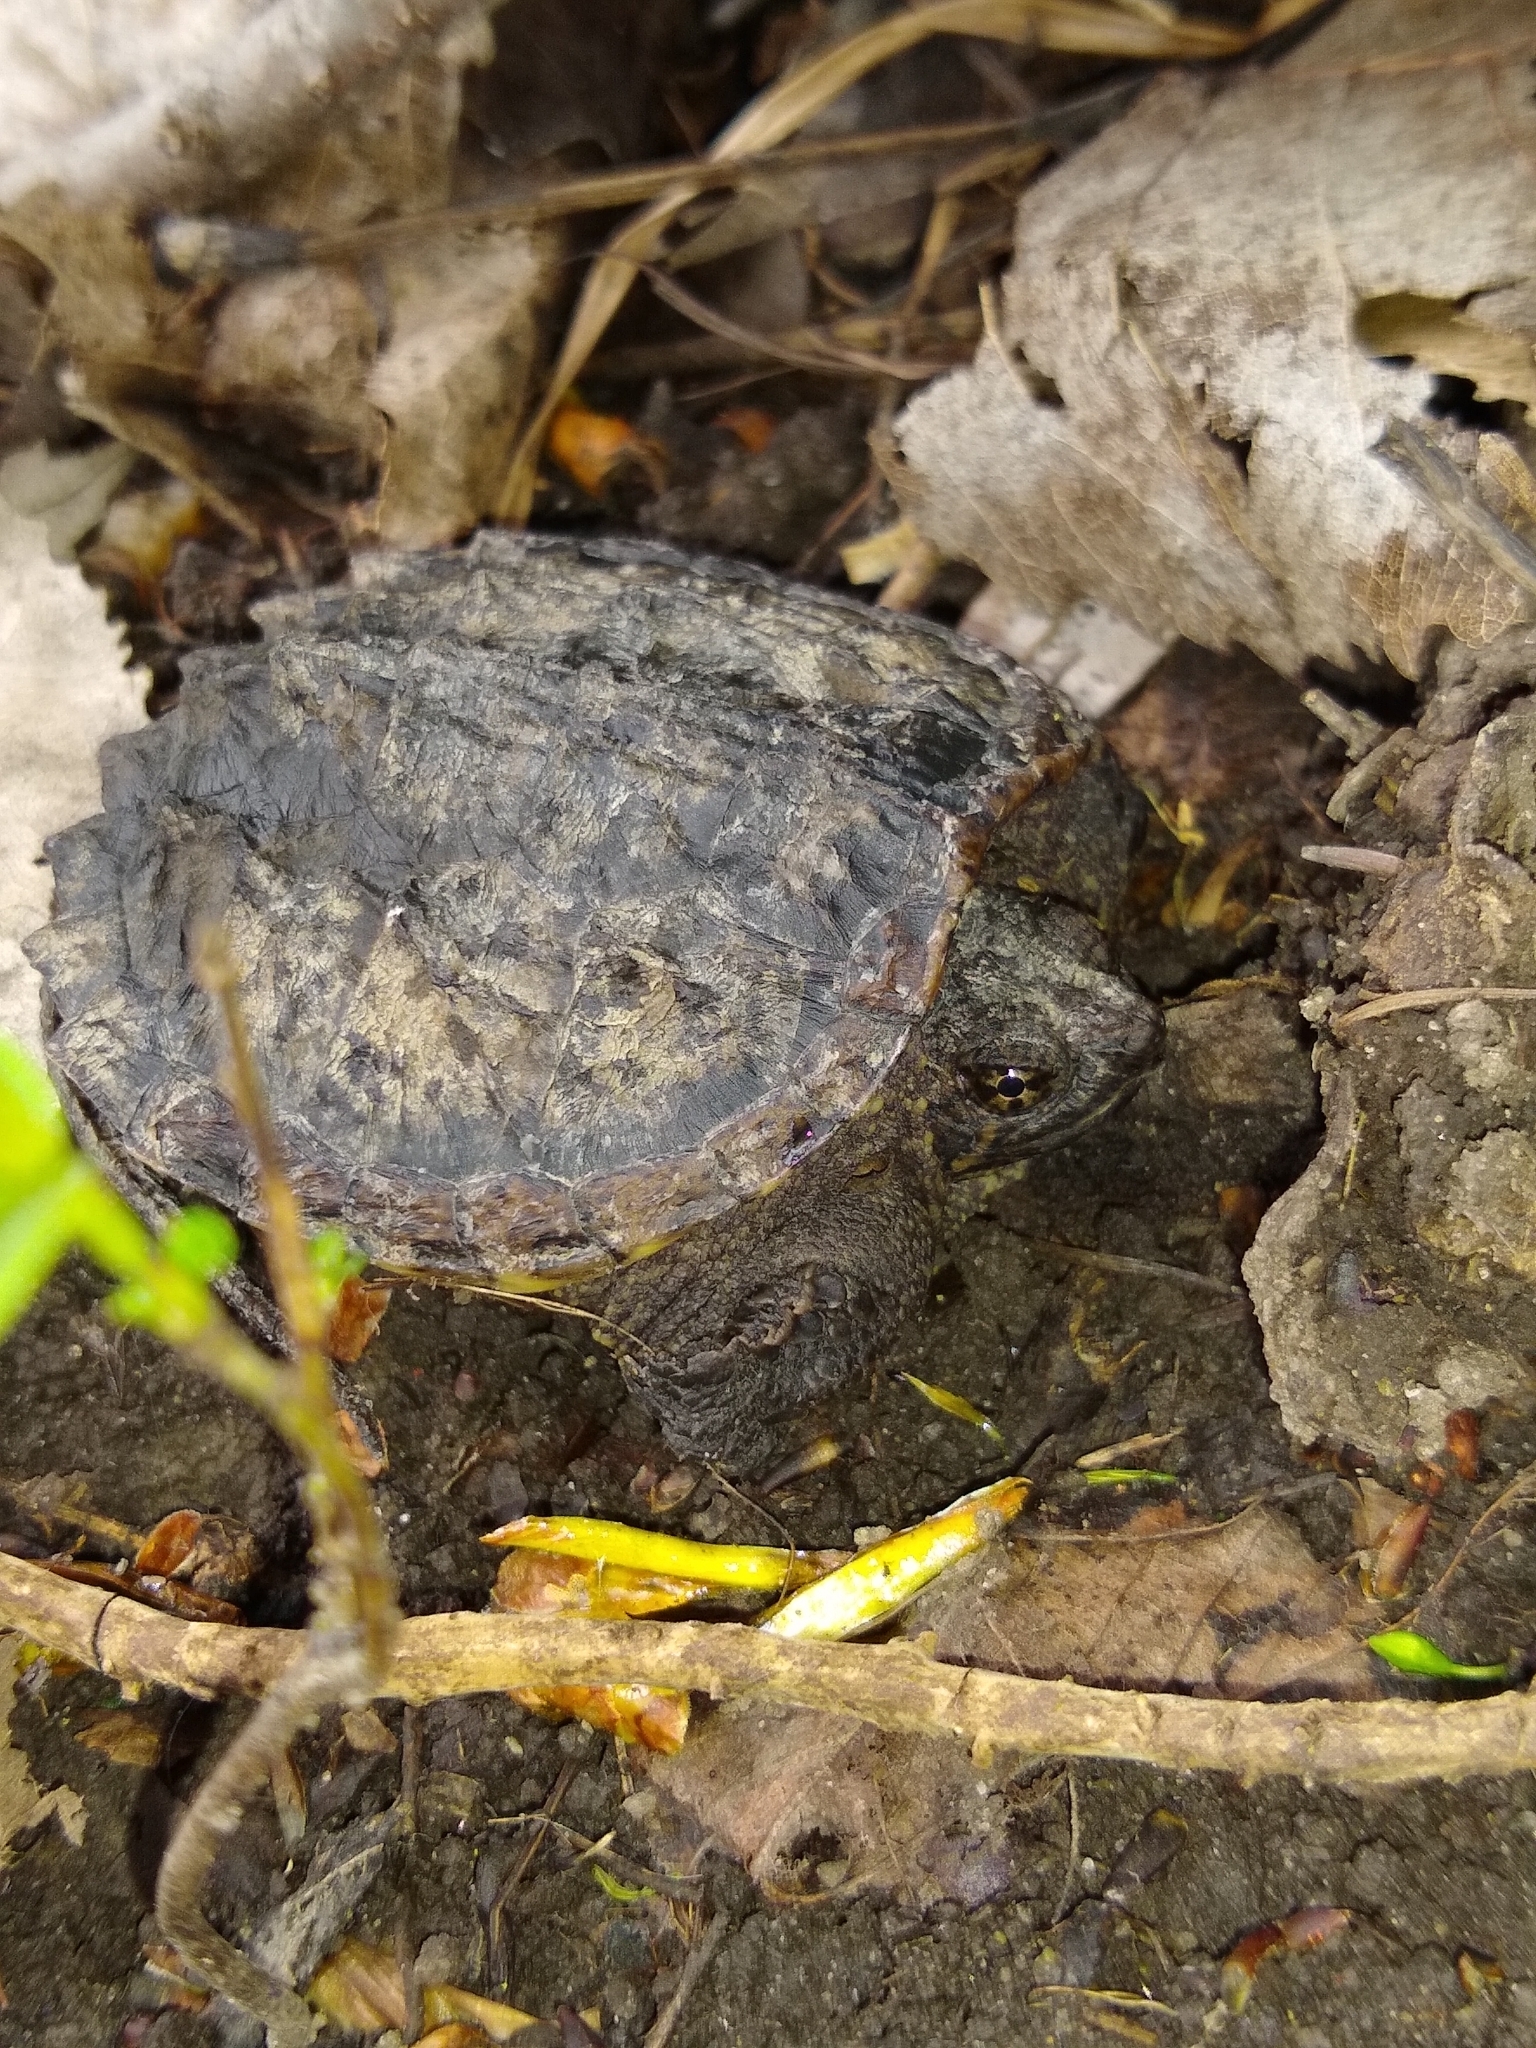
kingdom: Animalia
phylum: Chordata
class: Testudines
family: Chelydridae
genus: Chelydra
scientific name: Chelydra serpentina
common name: Common snapping turtle
